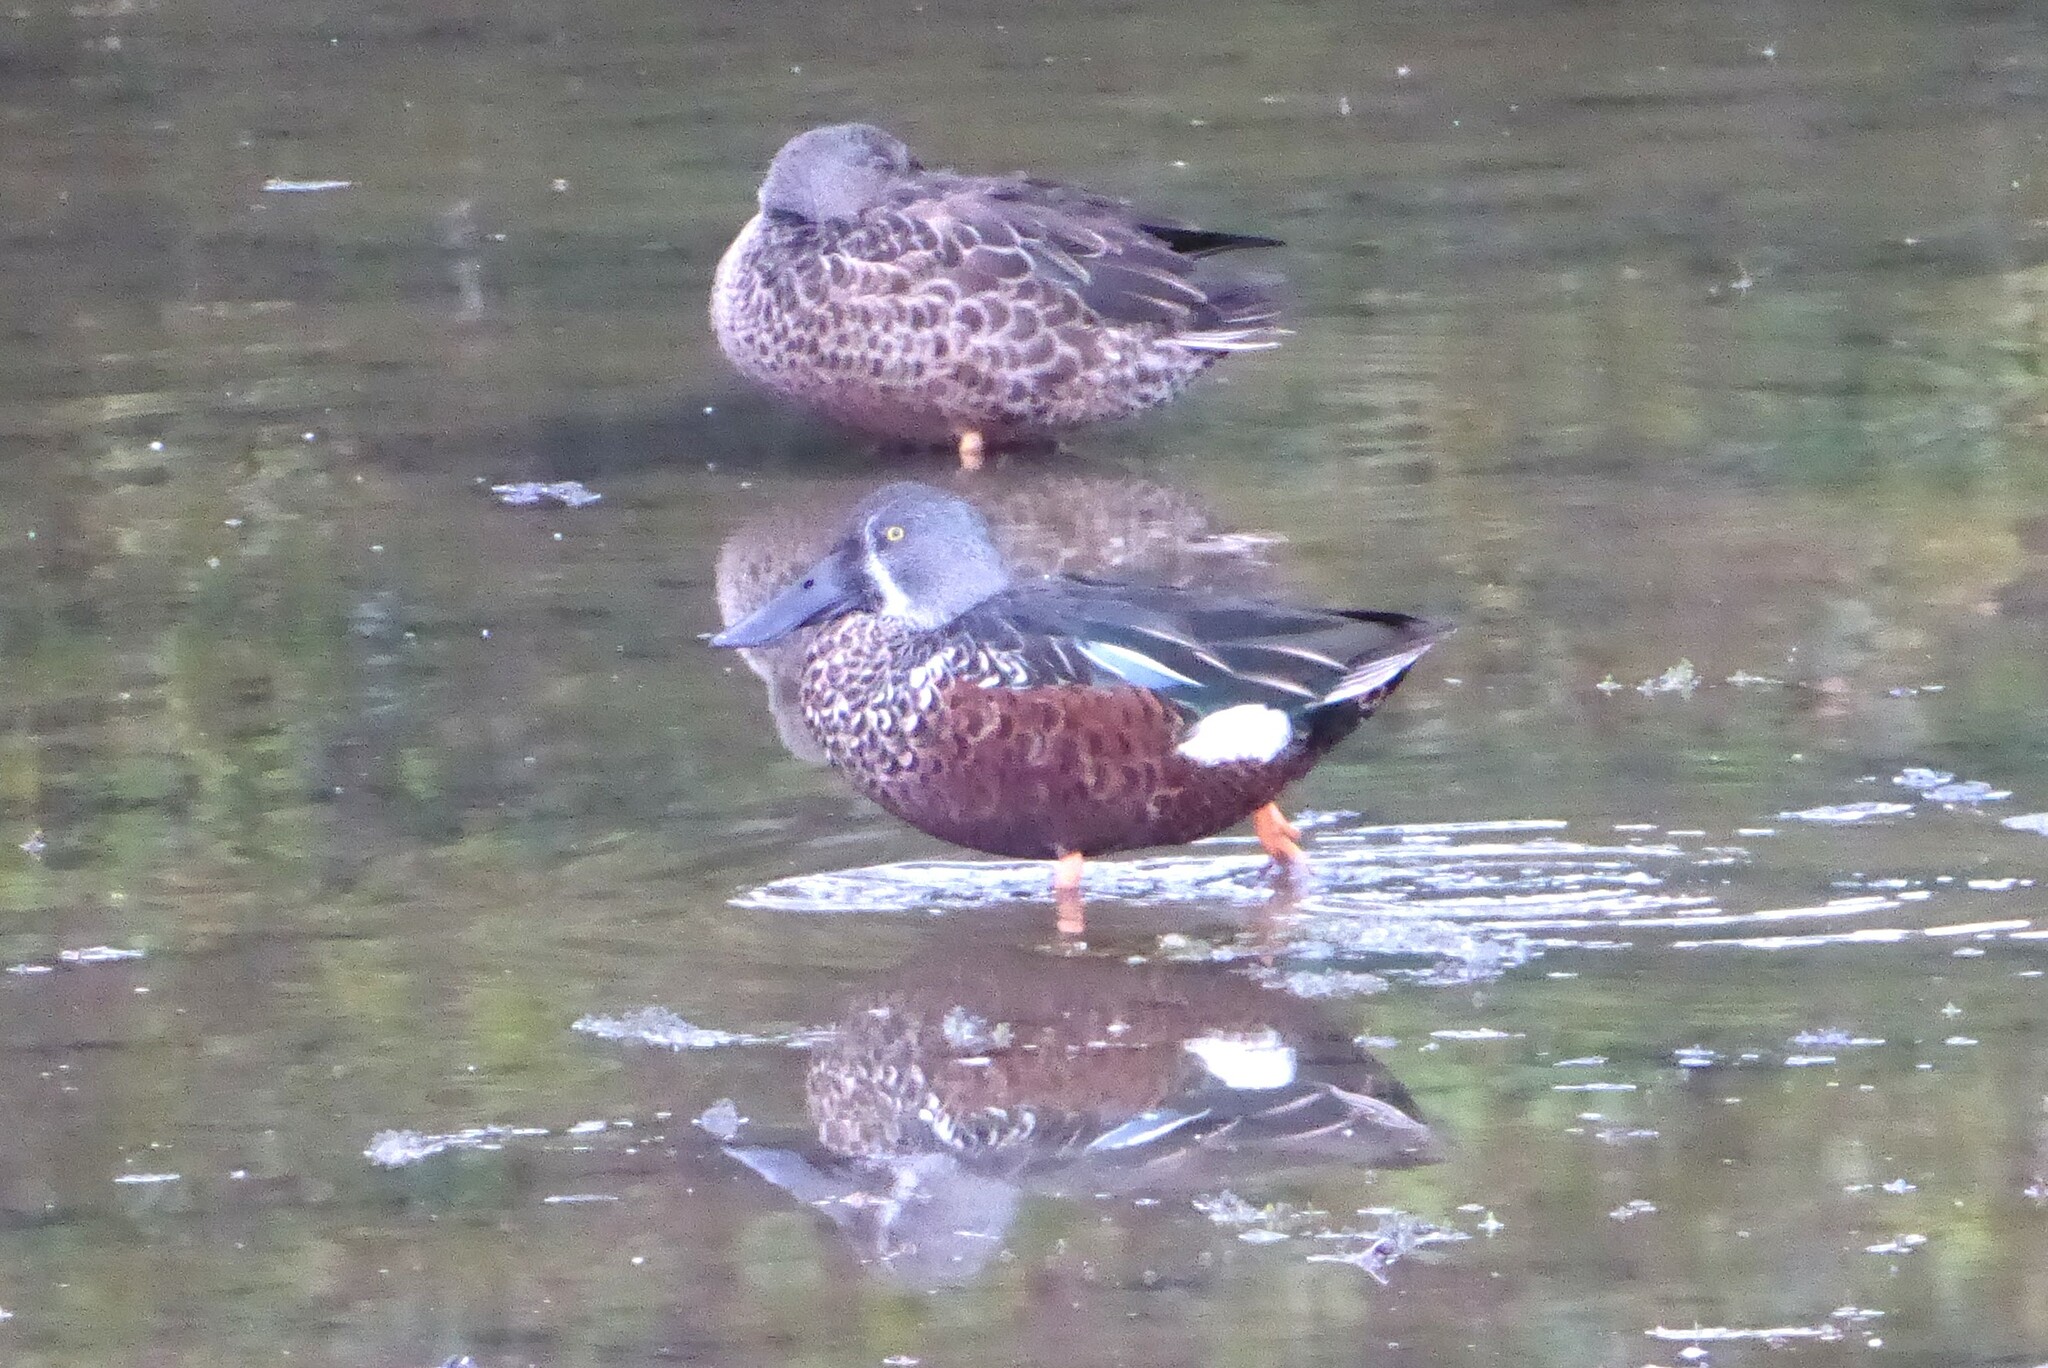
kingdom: Animalia
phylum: Chordata
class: Aves
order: Anseriformes
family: Anatidae
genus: Spatula
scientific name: Spatula rhynchotis
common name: Australian shoveler
